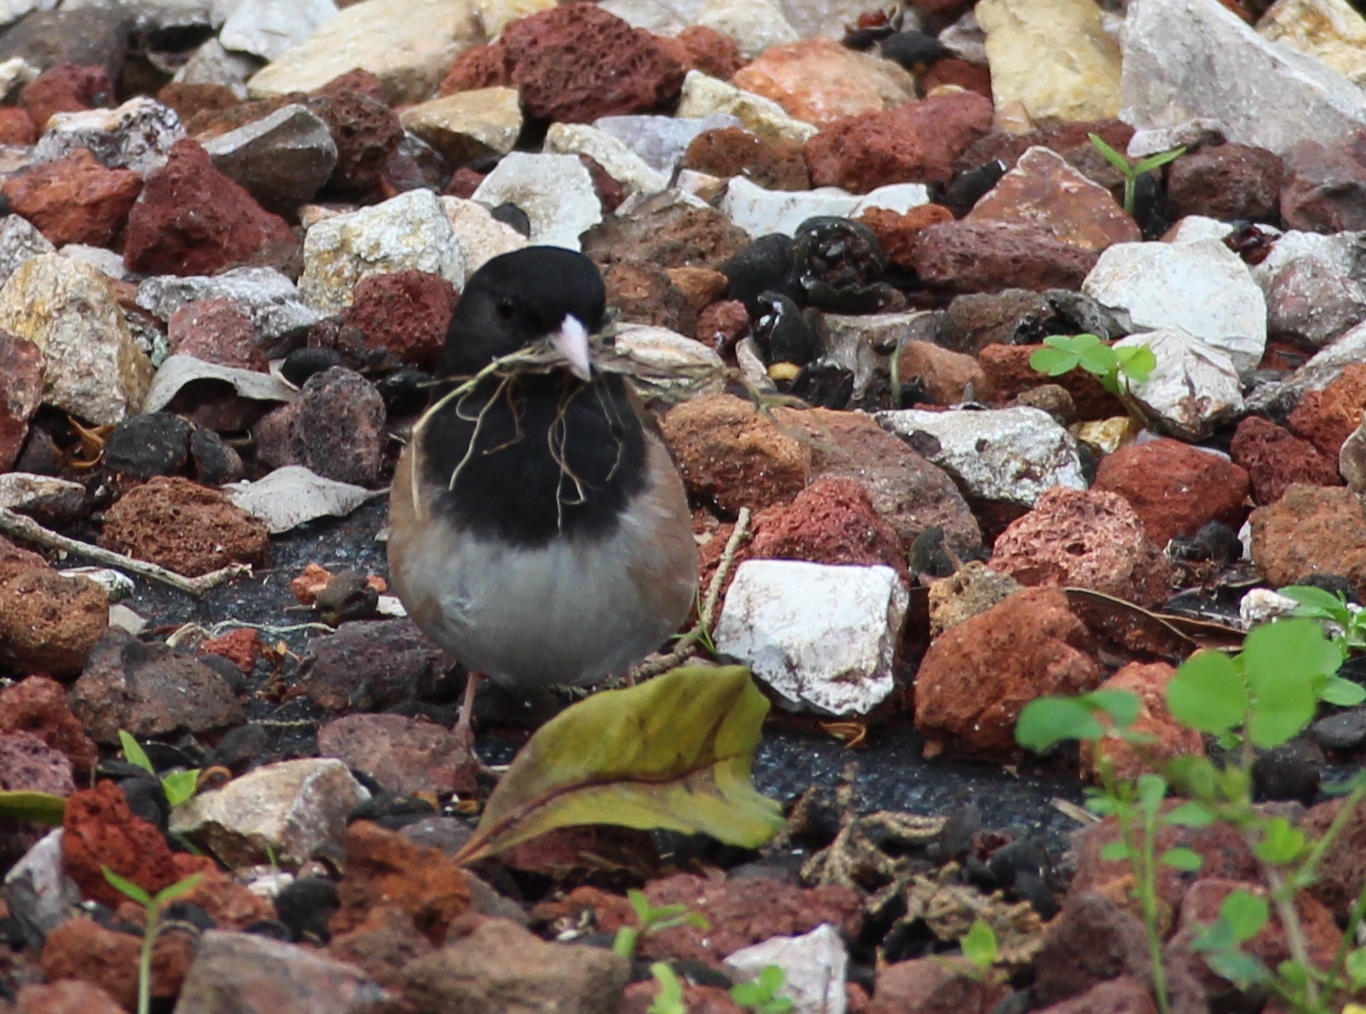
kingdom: Animalia
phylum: Chordata
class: Aves
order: Passeriformes
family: Passerellidae
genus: Junco
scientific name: Junco hyemalis
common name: Dark-eyed junco
